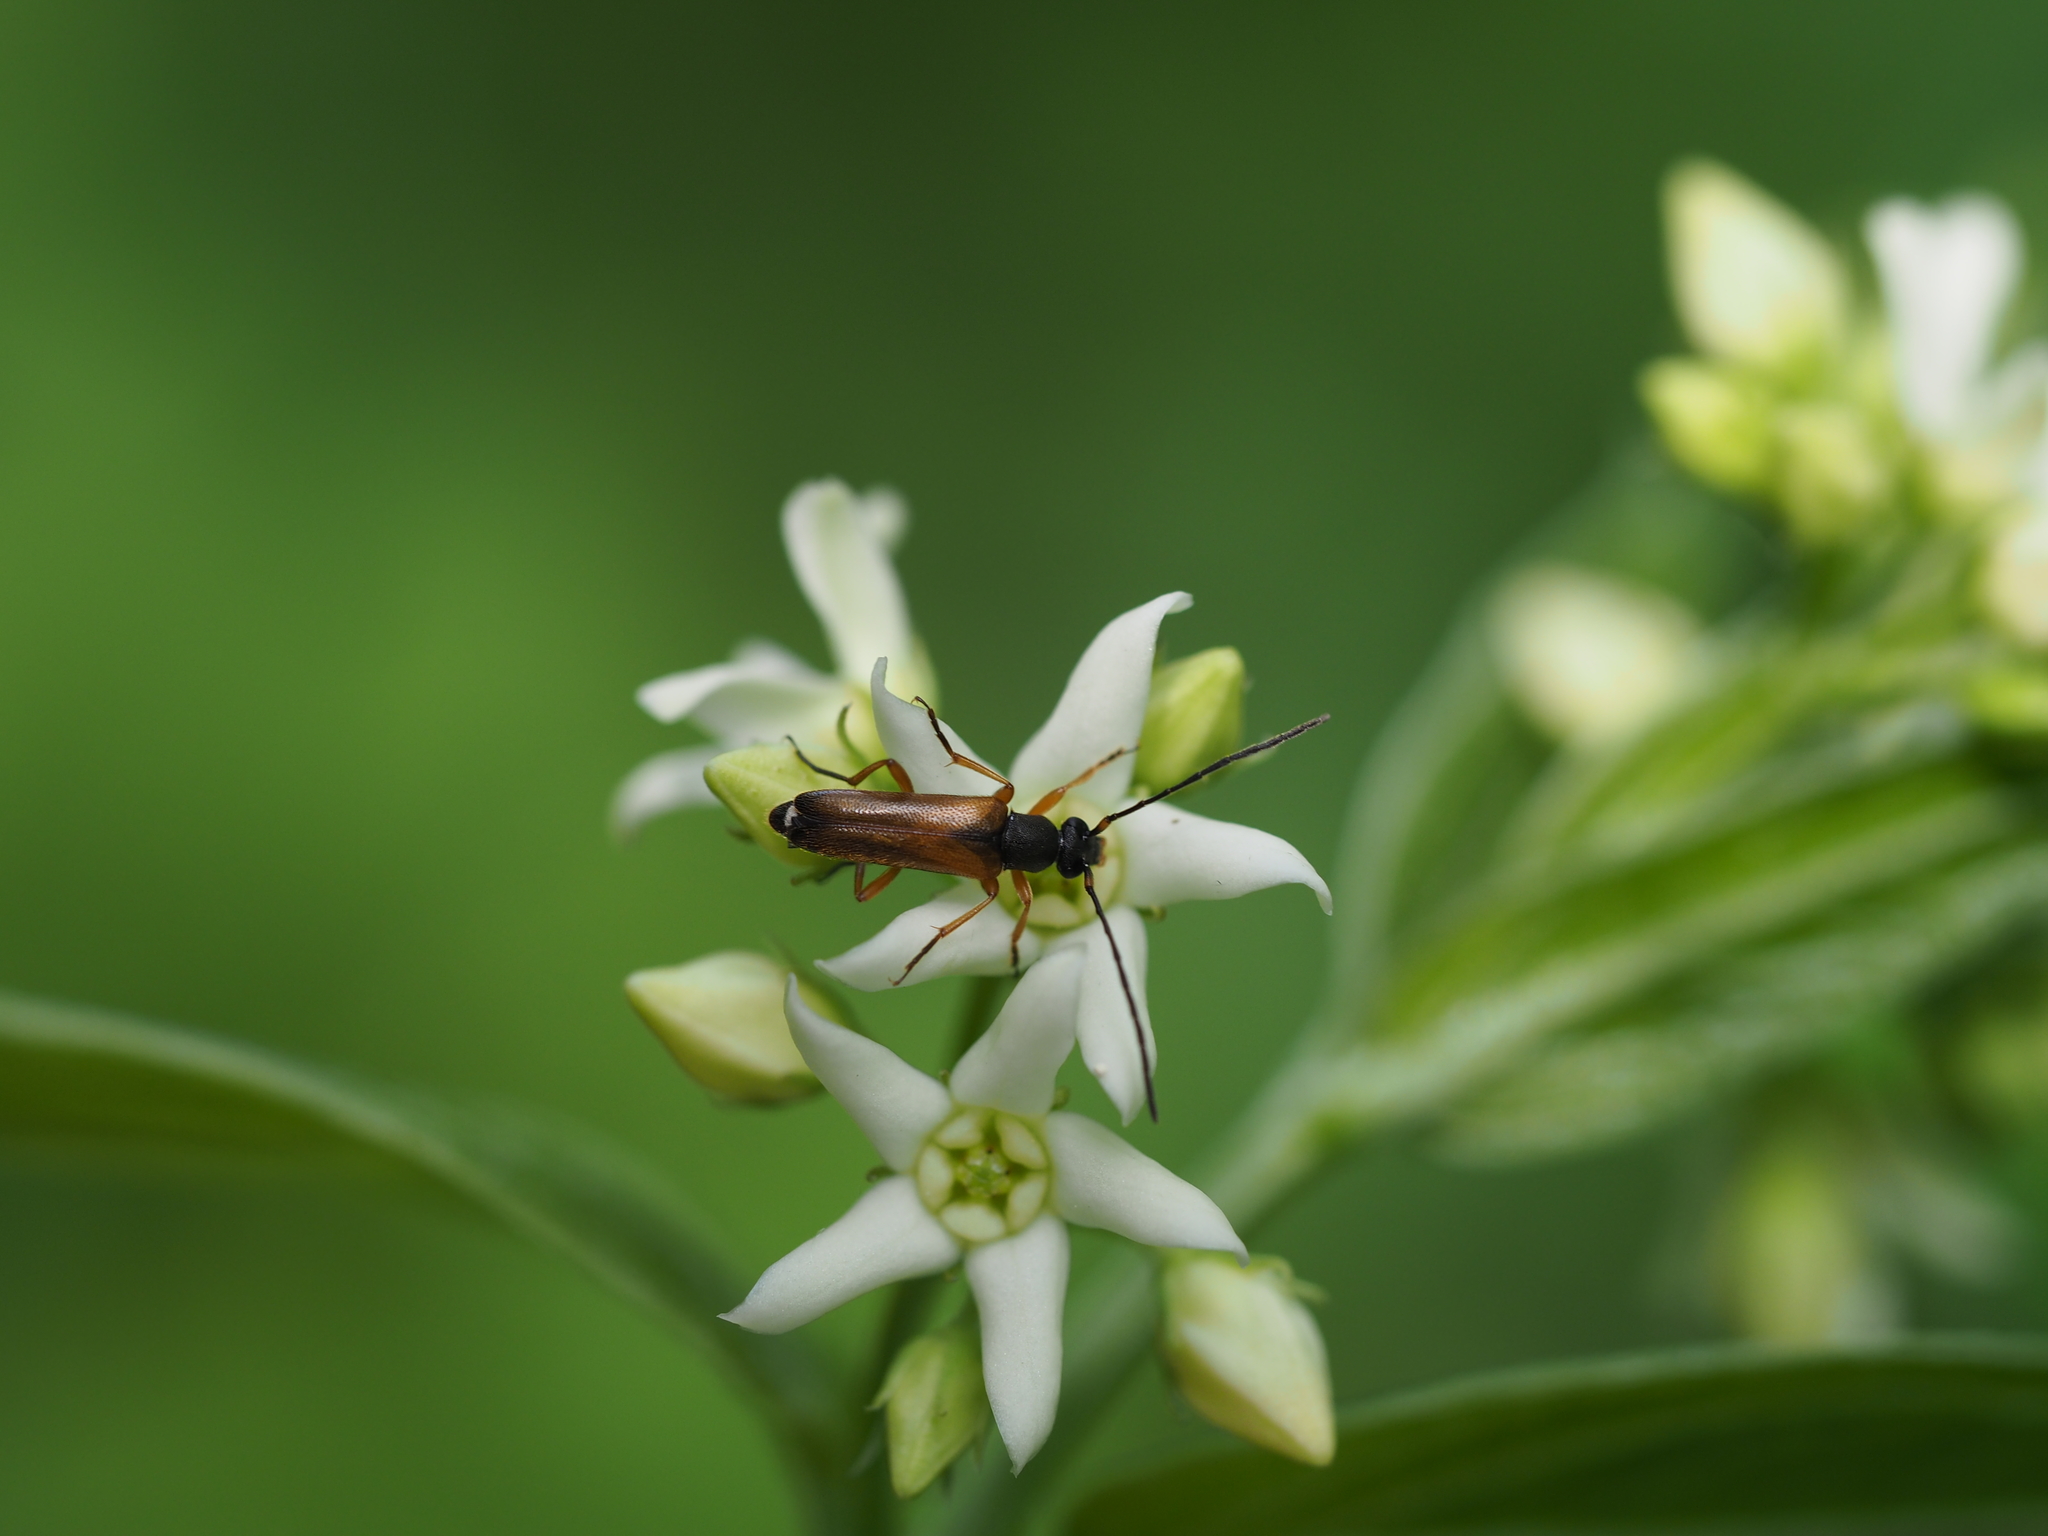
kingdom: Animalia
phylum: Arthropoda
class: Insecta
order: Coleoptera
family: Cerambycidae
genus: Alosterna
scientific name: Alosterna tabacicolor
